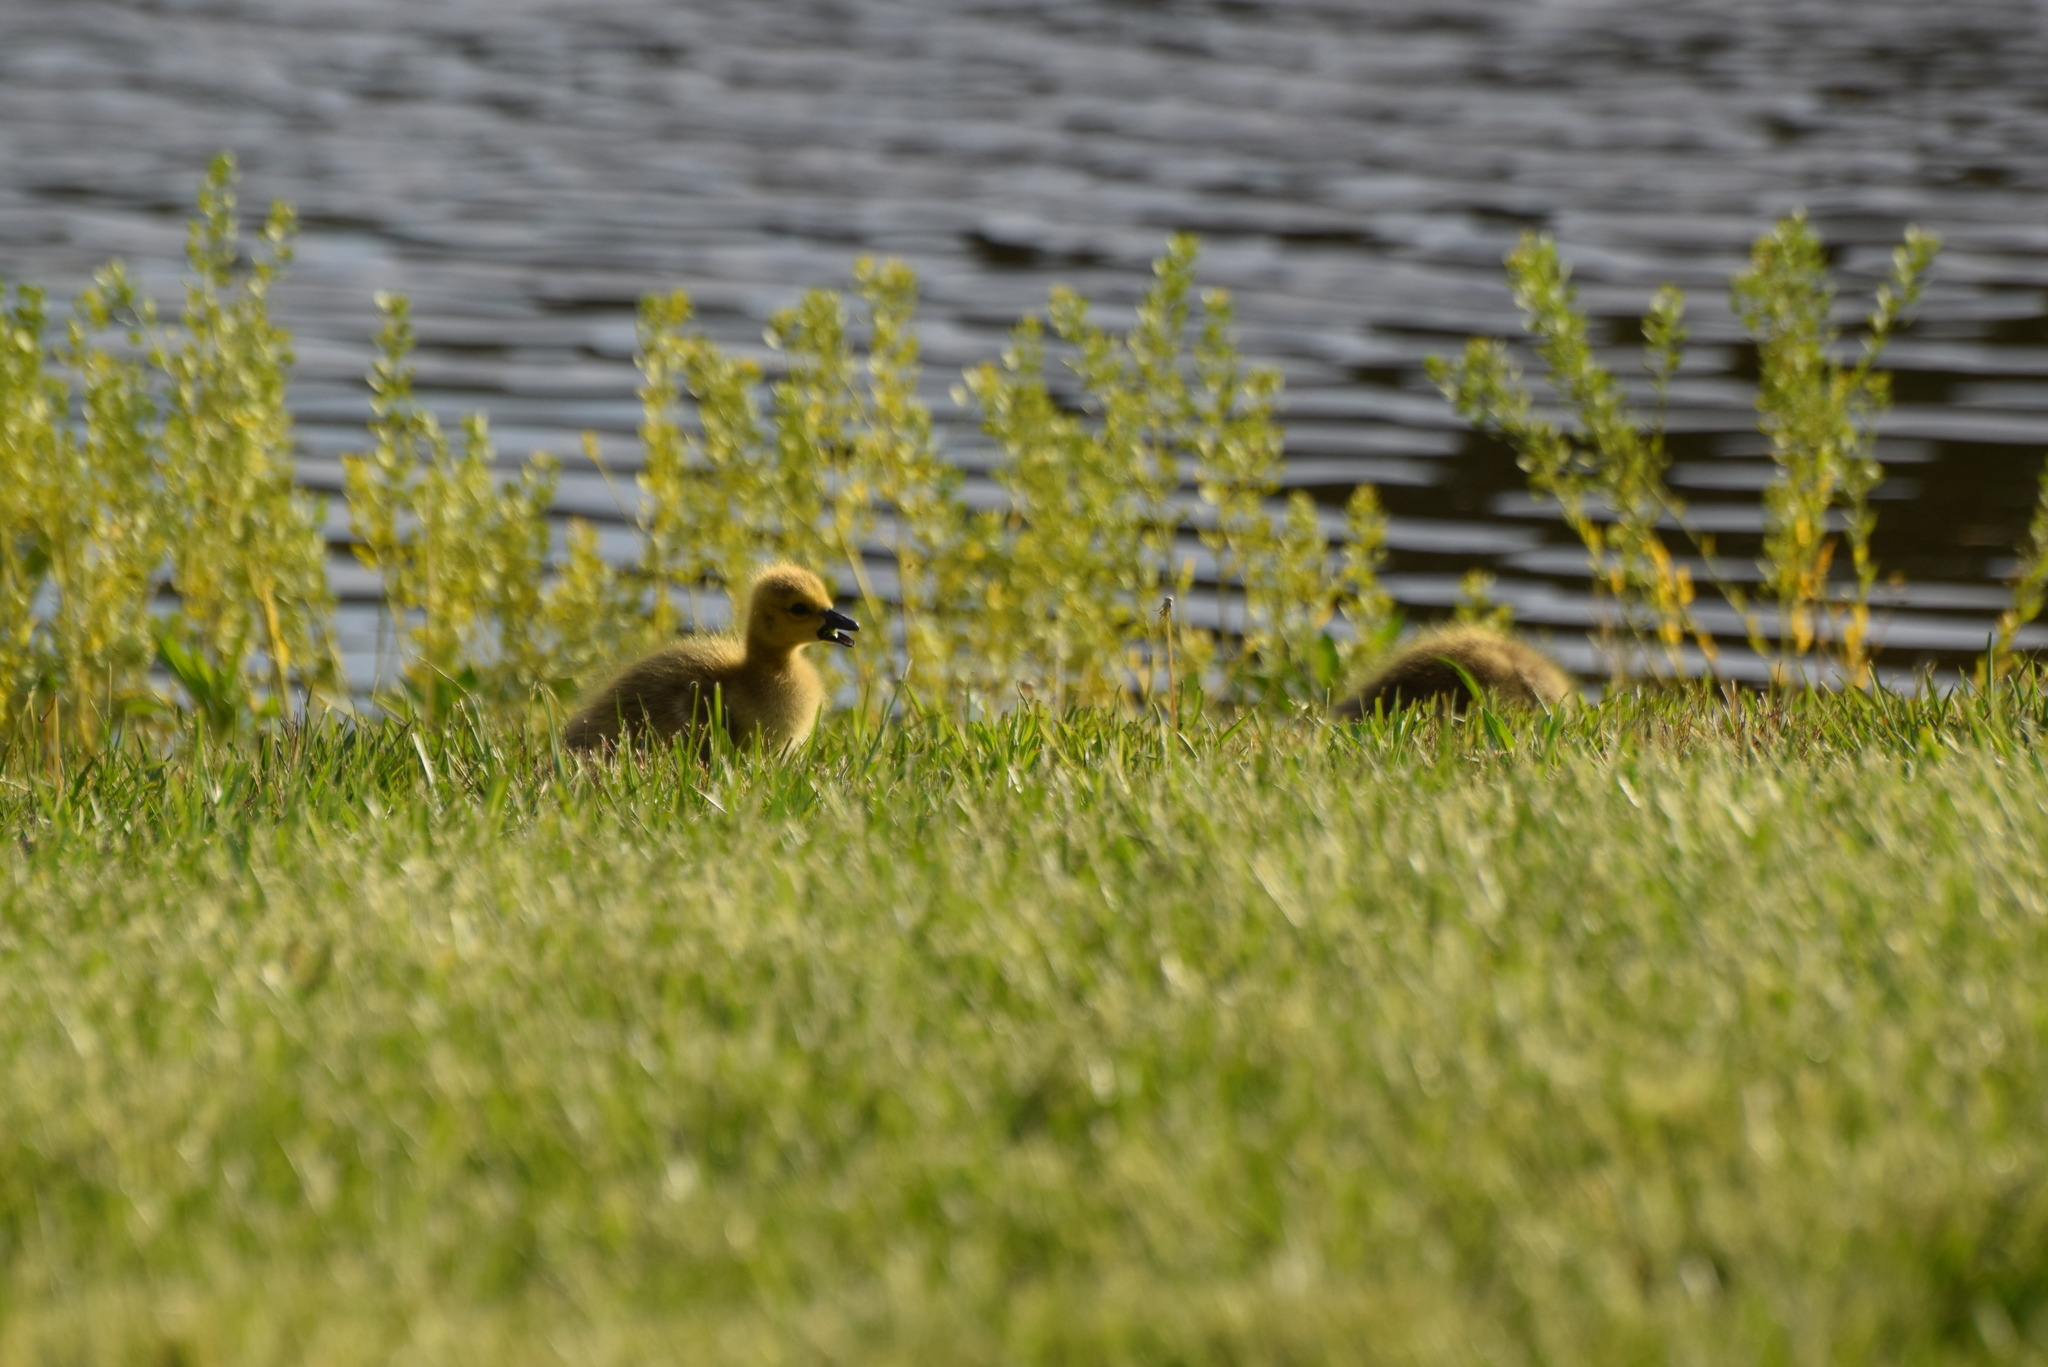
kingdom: Animalia
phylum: Chordata
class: Aves
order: Anseriformes
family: Anatidae
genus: Branta
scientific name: Branta canadensis
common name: Canada goose
